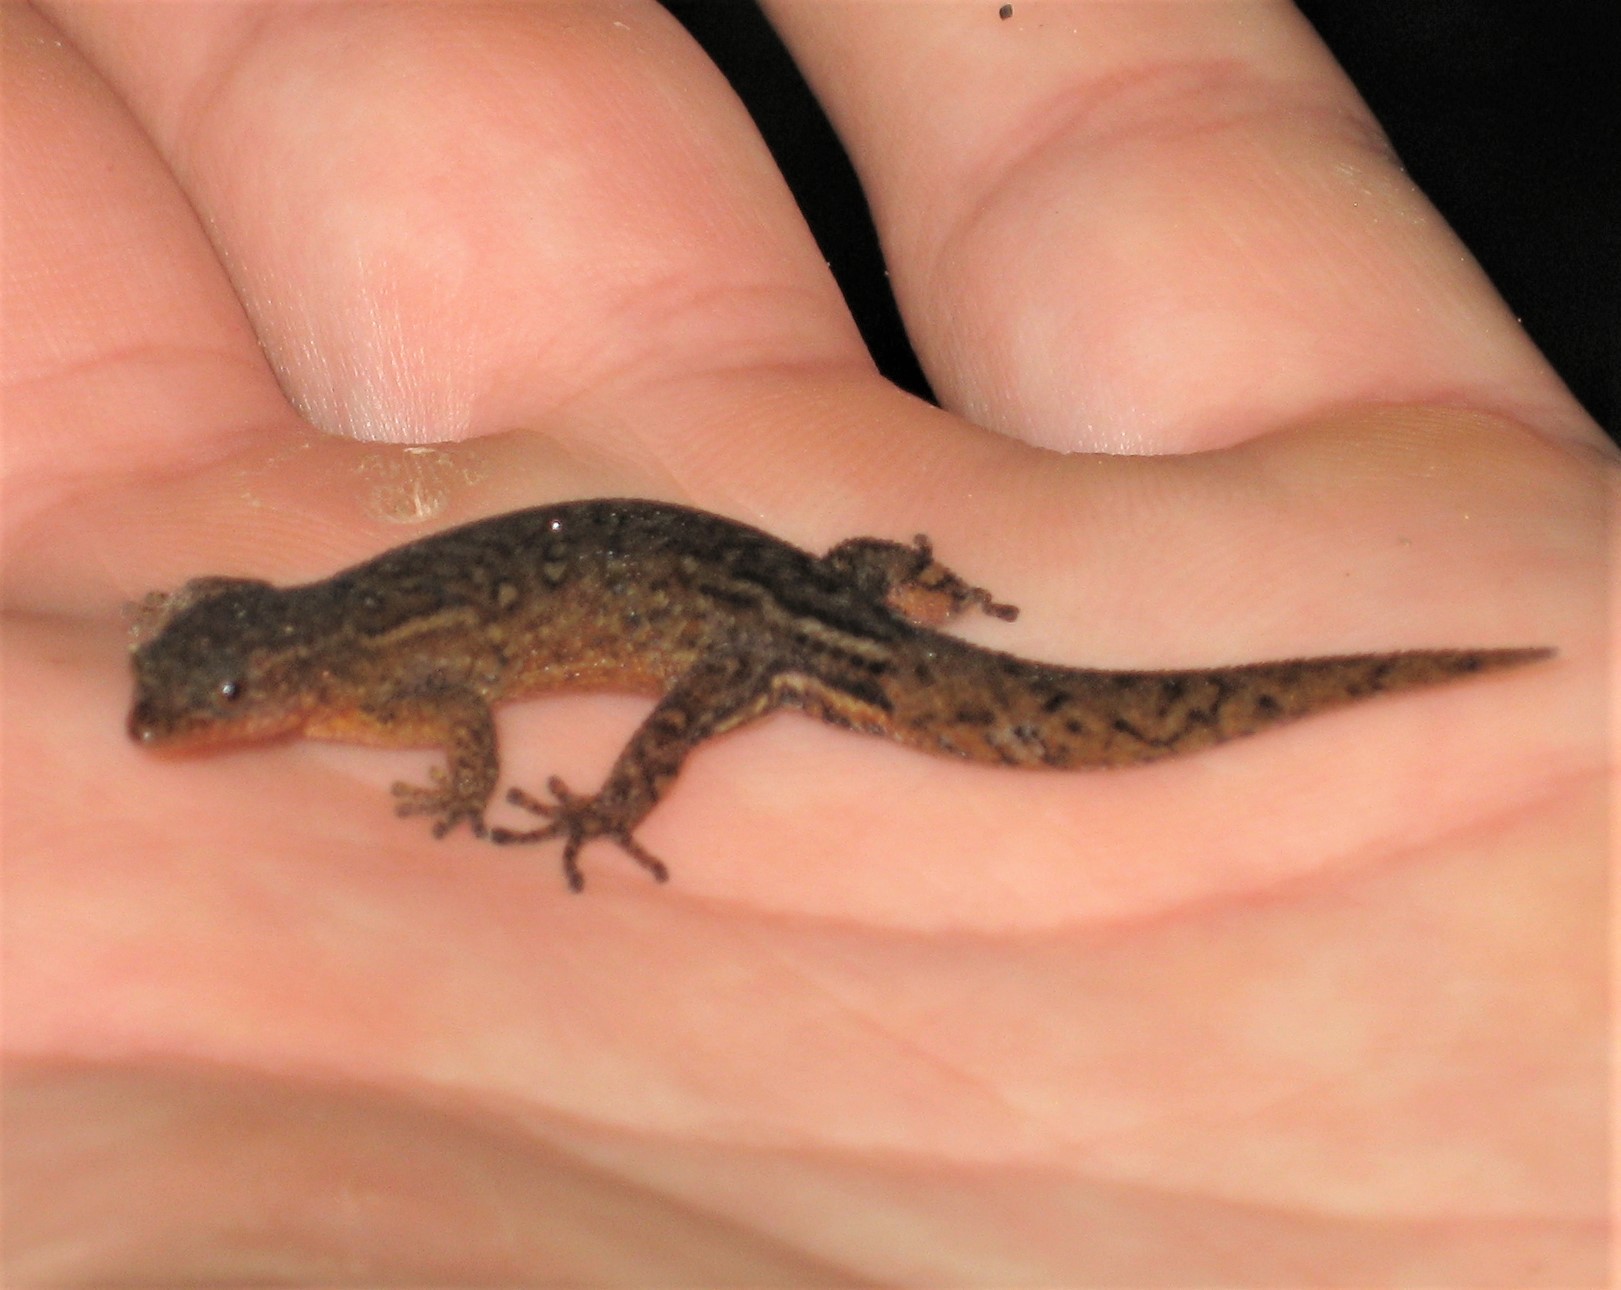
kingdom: Animalia
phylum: Chordata
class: Squamata
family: Sphaerodactylidae
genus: Sphaerodactylus
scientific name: Sphaerodactylus klauberi
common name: Puerto rican upland sphaero
